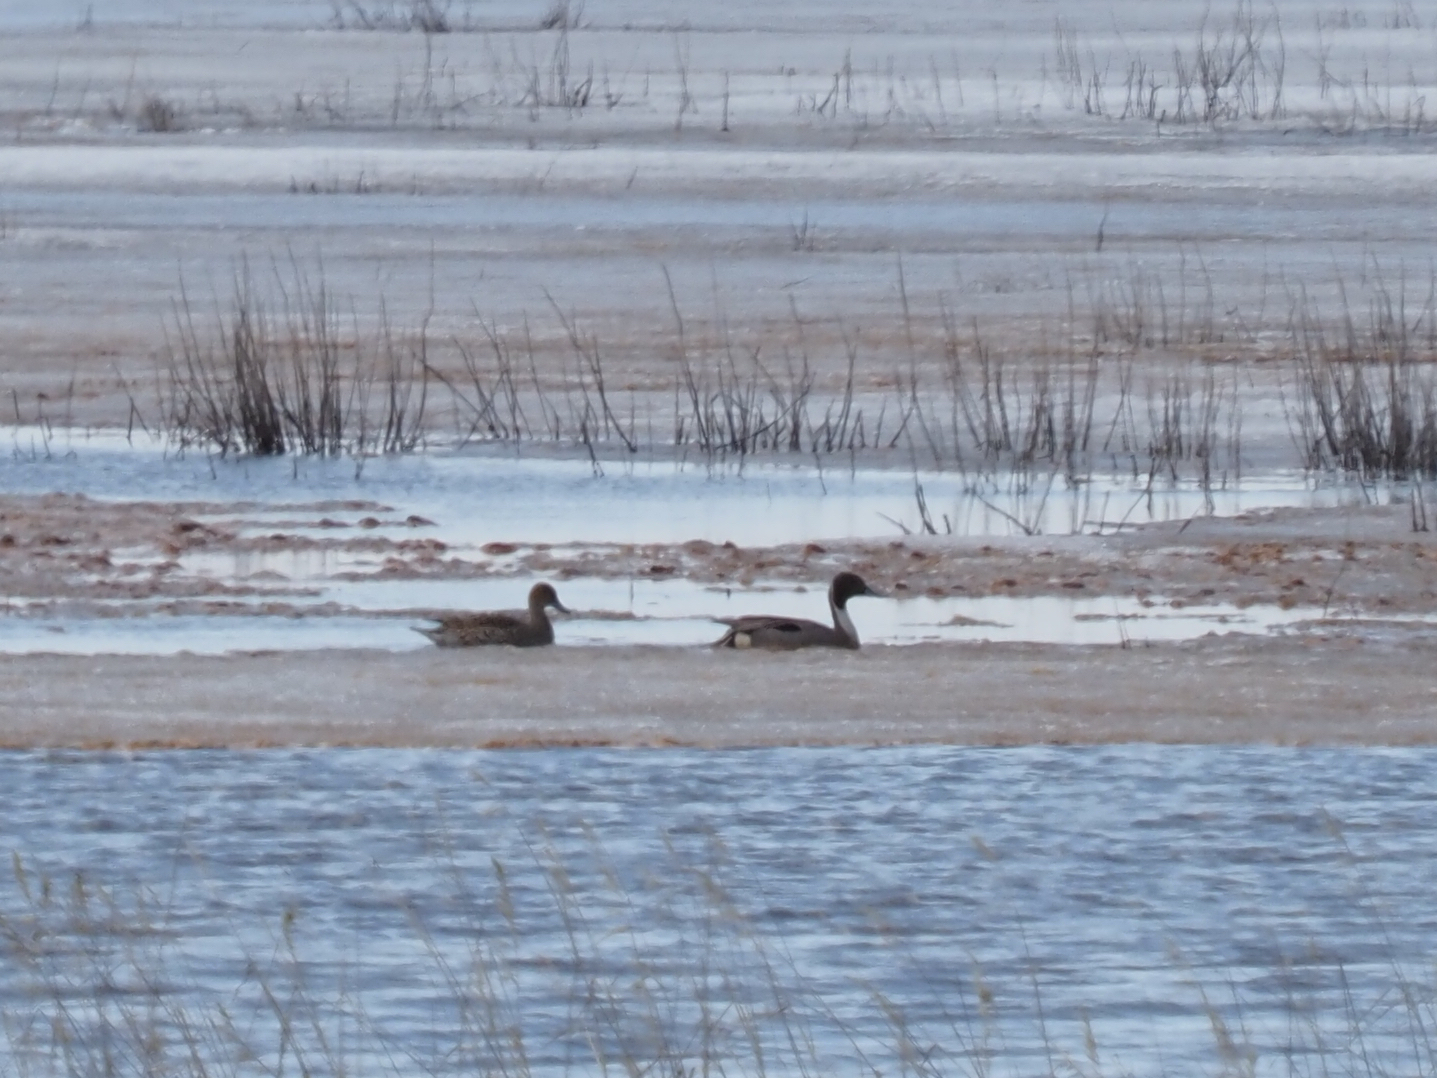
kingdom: Animalia
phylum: Chordata
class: Aves
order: Anseriformes
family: Anatidae
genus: Anas
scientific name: Anas acuta
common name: Northern pintail
